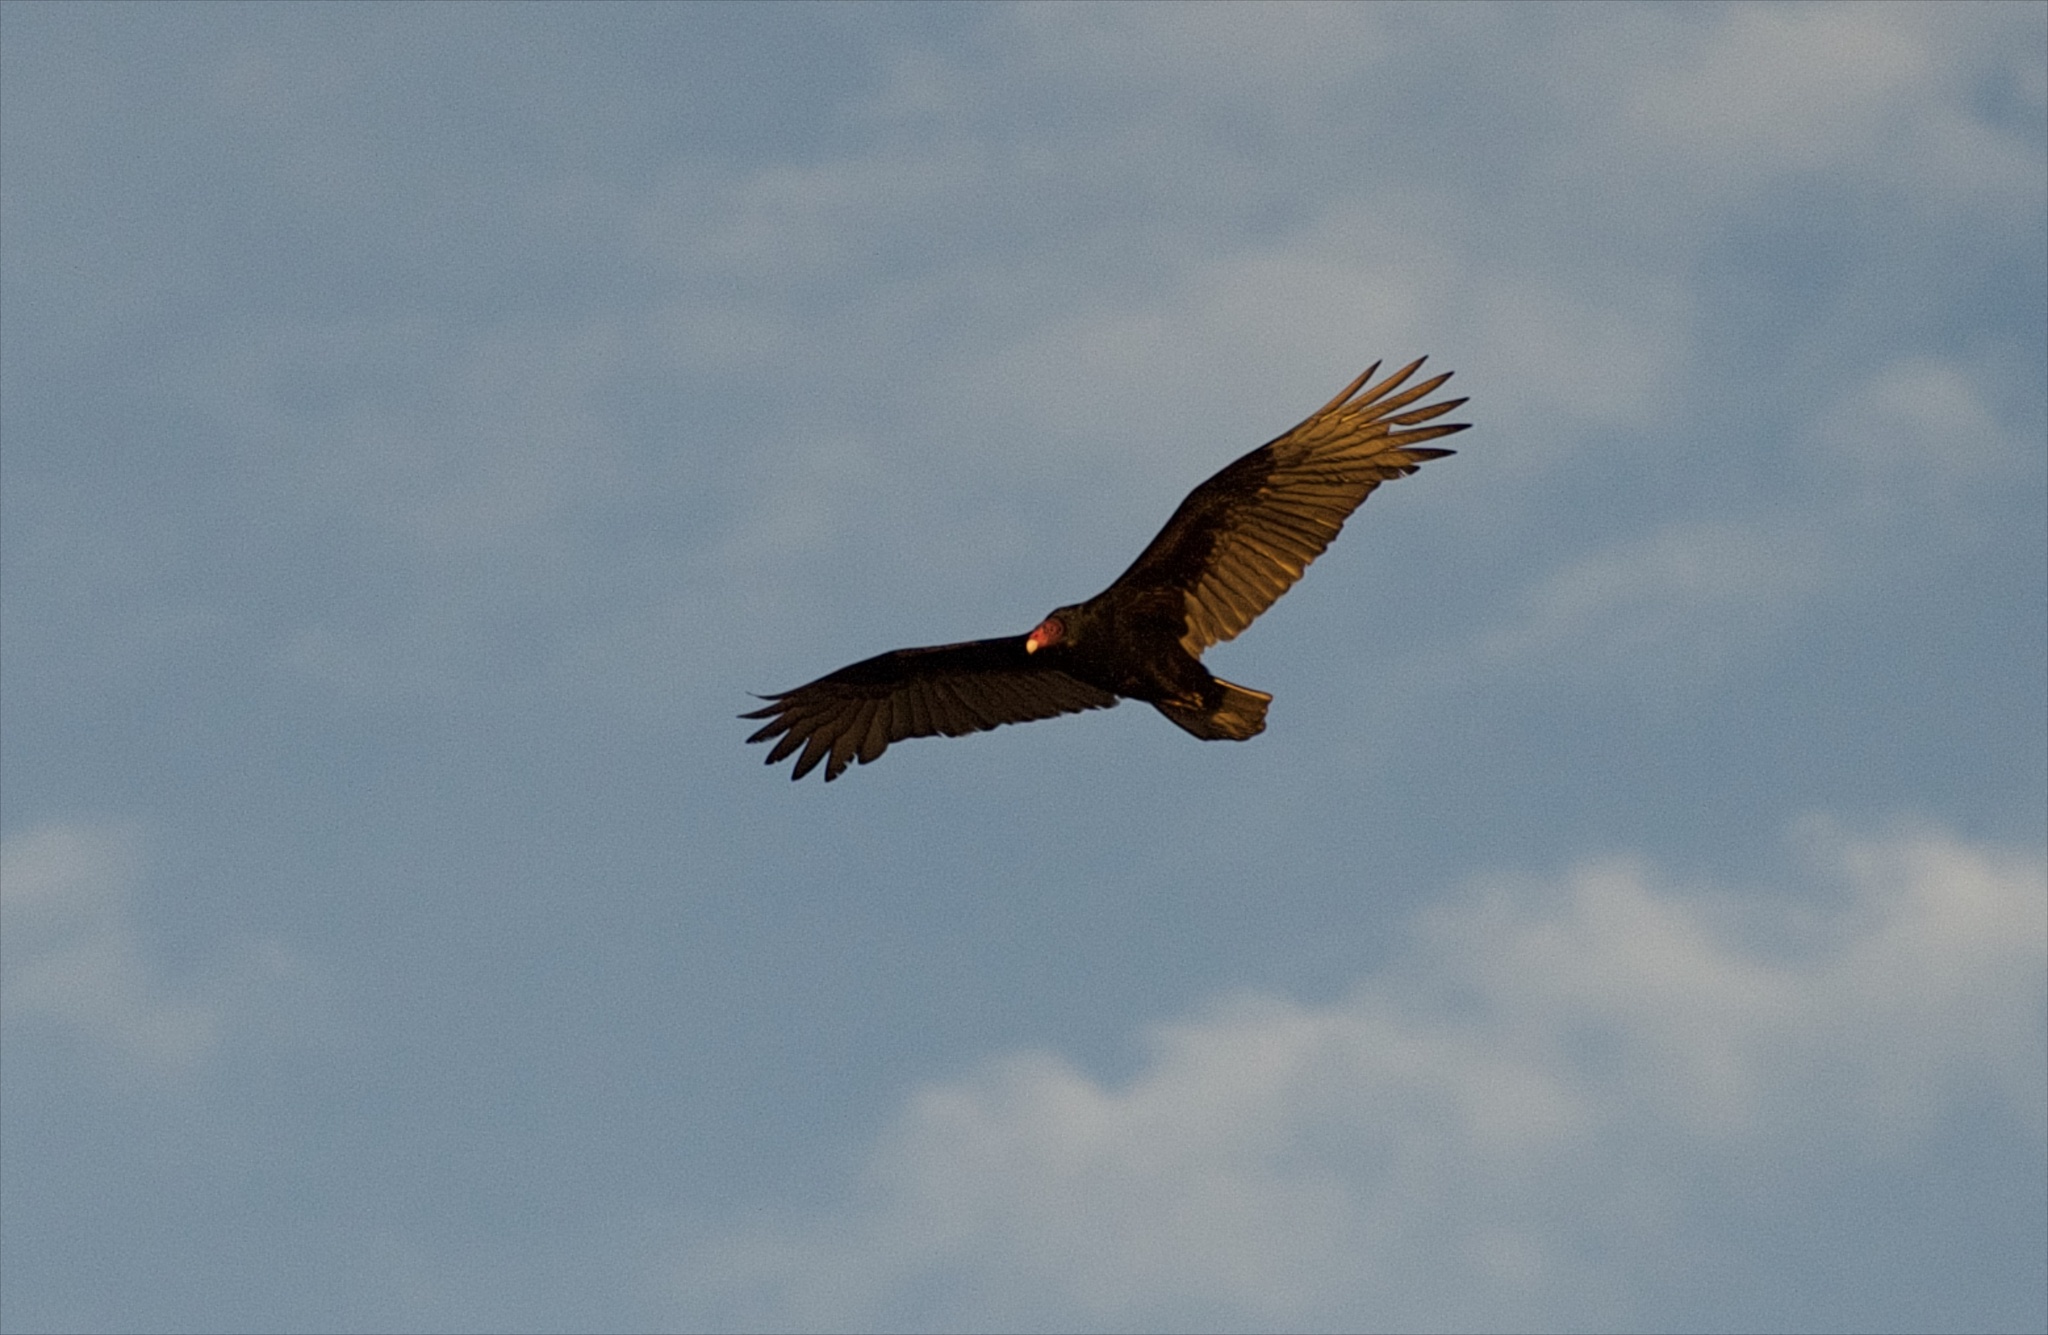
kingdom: Animalia
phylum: Chordata
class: Aves
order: Accipitriformes
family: Cathartidae
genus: Cathartes
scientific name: Cathartes aura
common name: Turkey vulture
